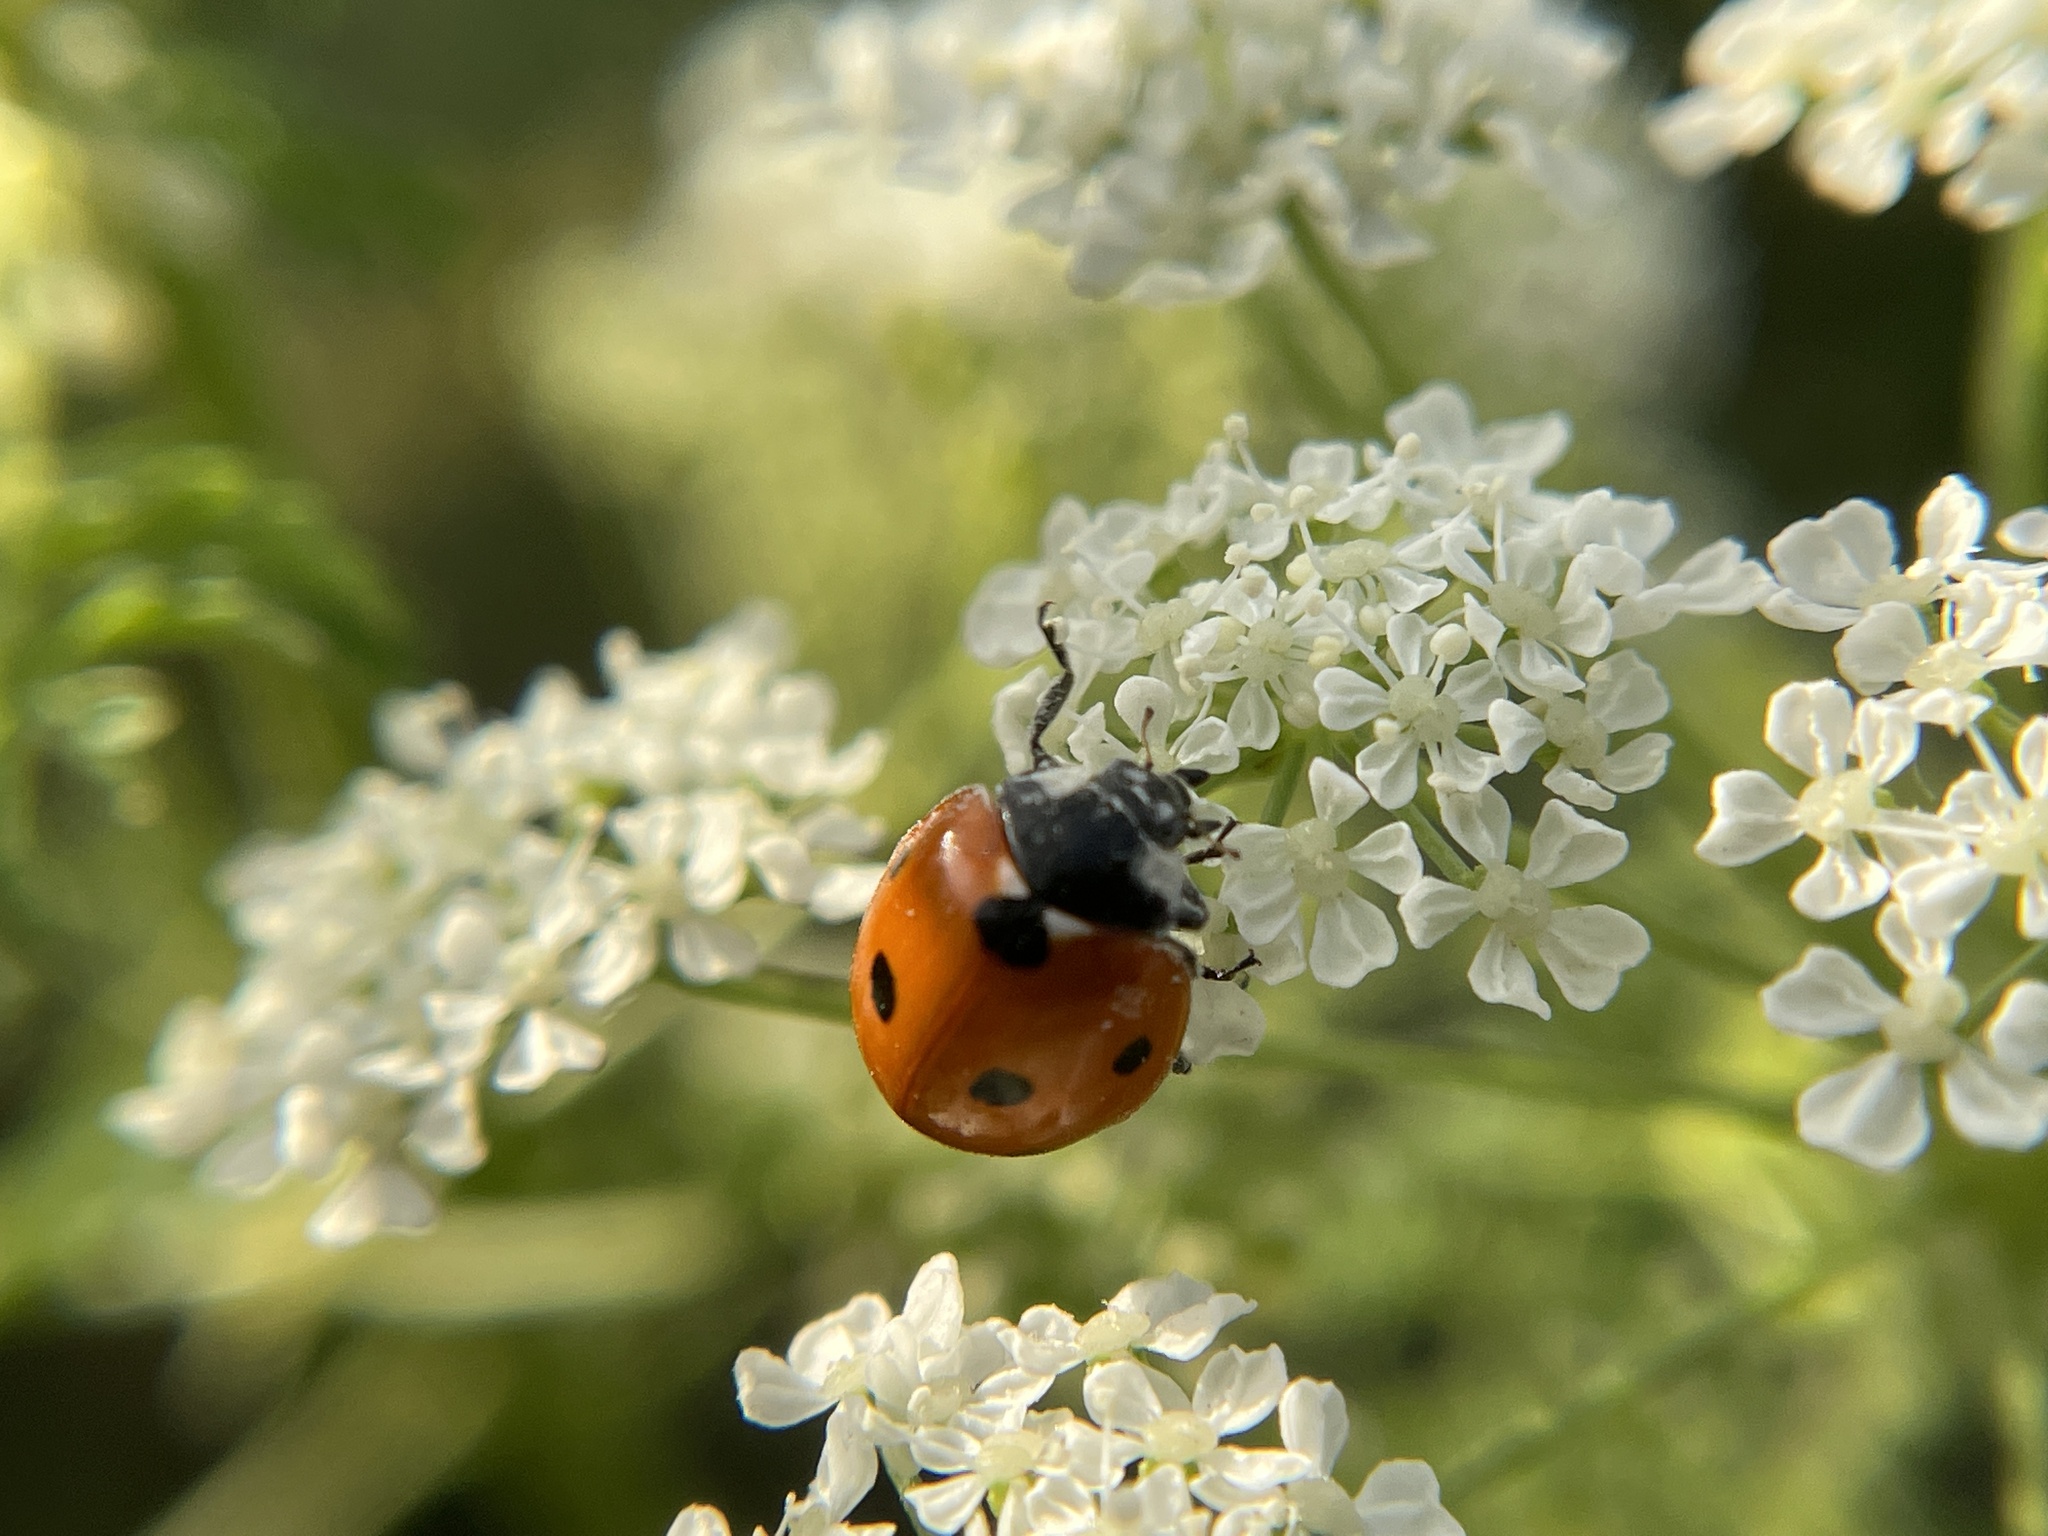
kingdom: Animalia
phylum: Arthropoda
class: Insecta
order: Coleoptera
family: Coccinellidae
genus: Coccinella
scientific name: Coccinella septempunctata
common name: Sevenspotted lady beetle
